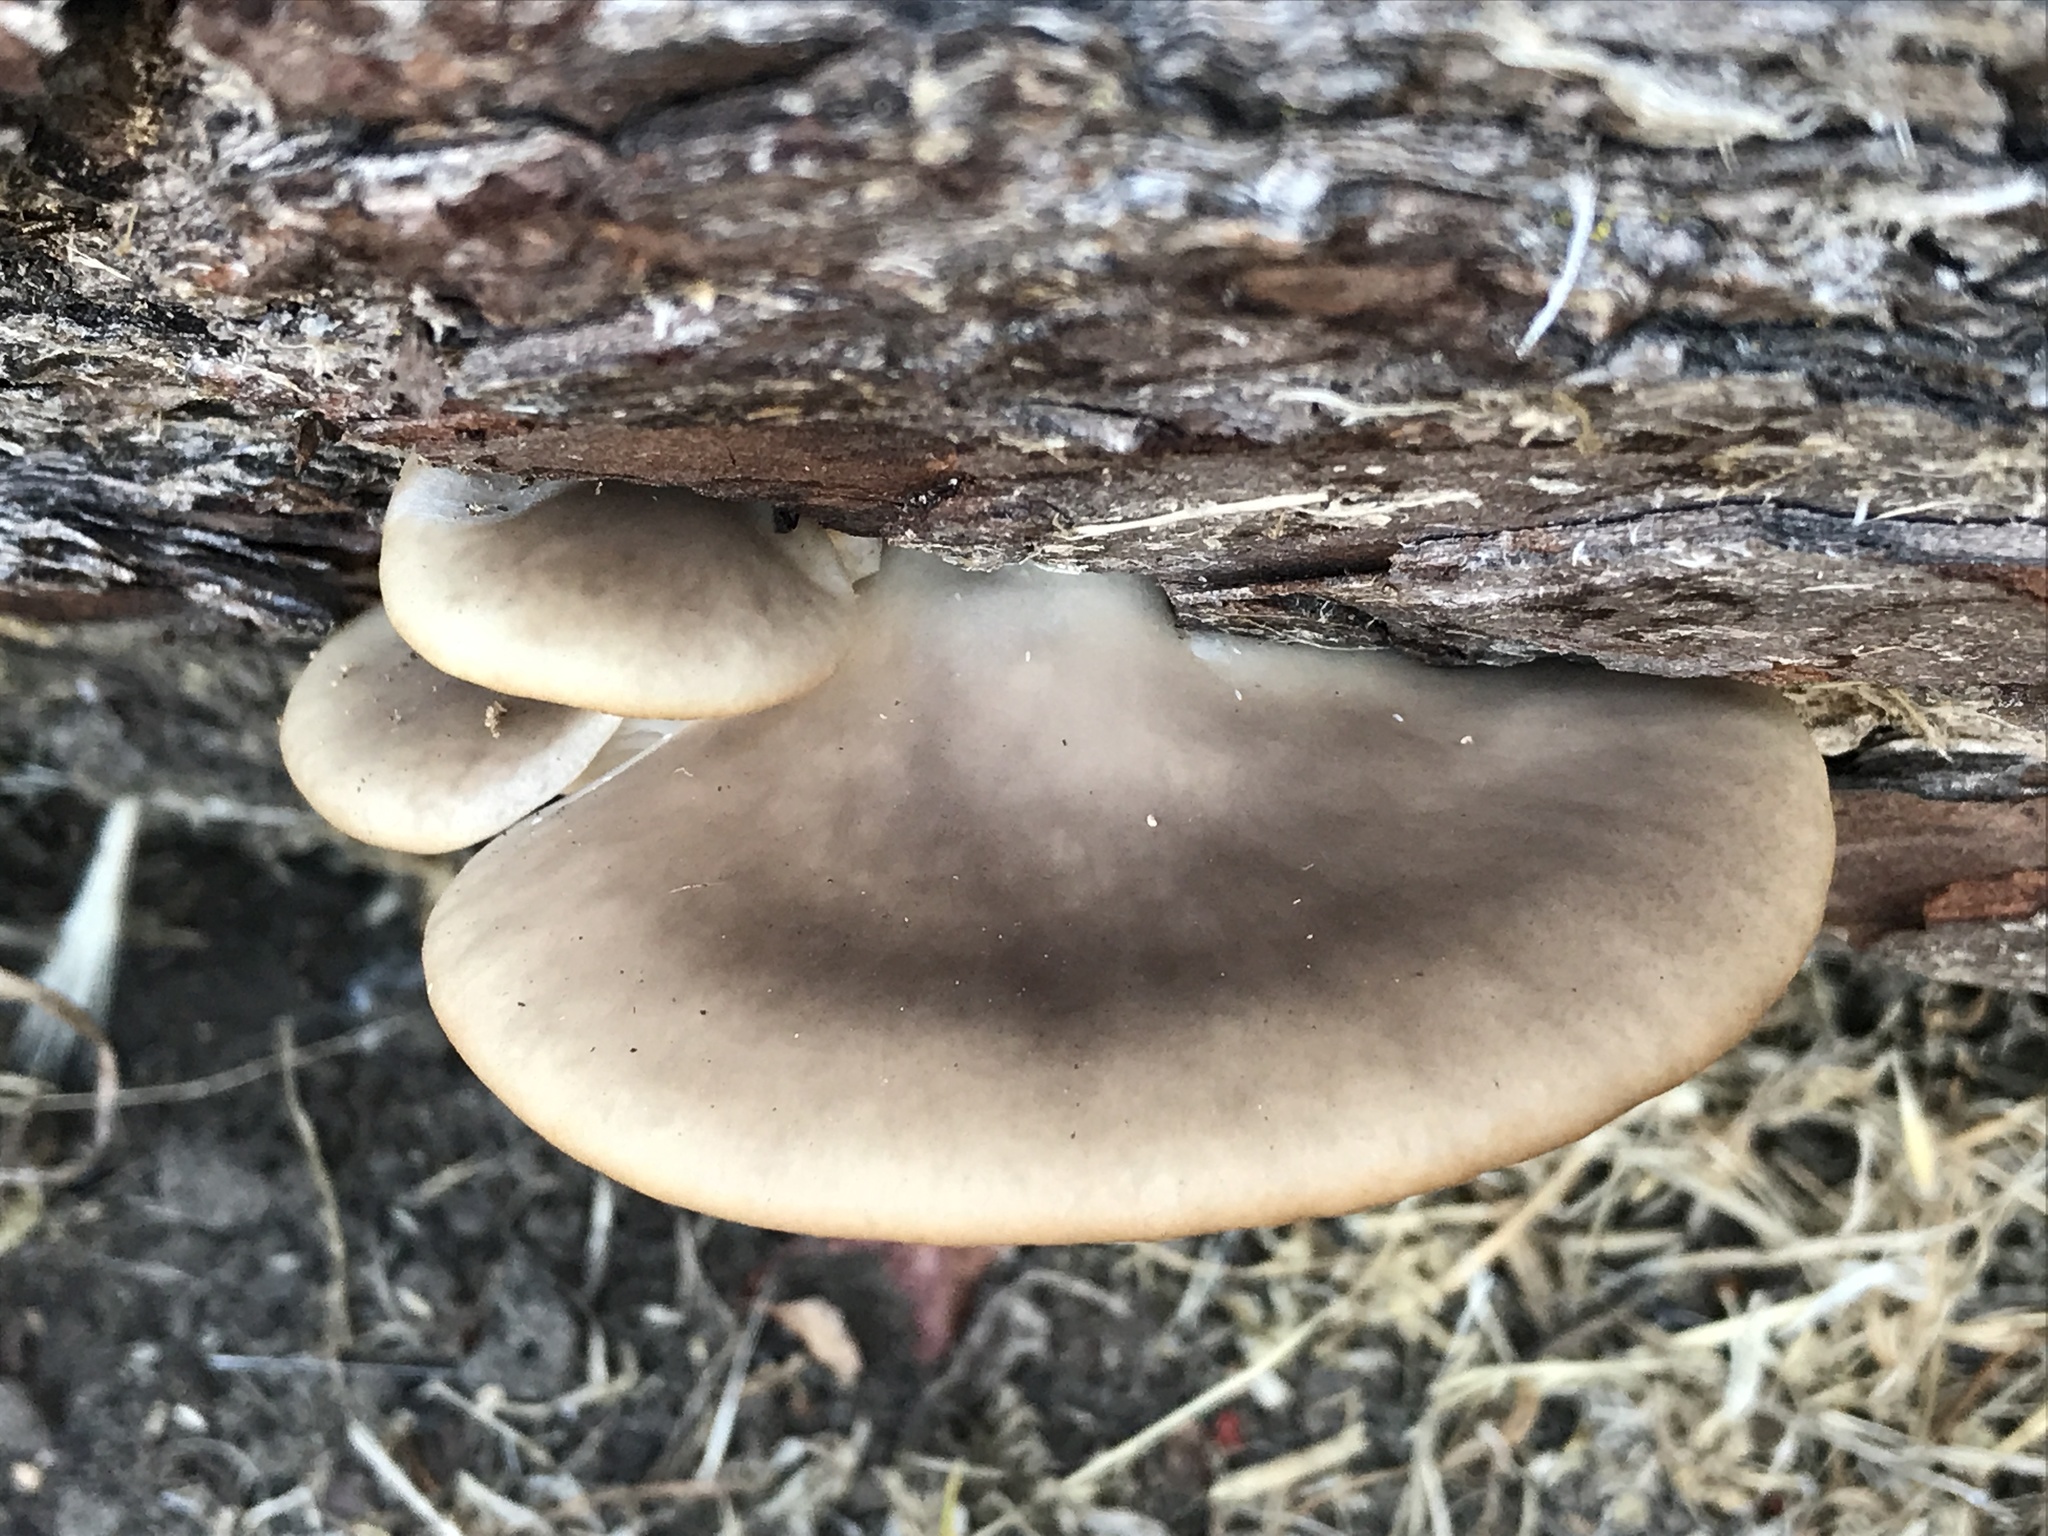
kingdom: Fungi
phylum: Basidiomycota
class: Agaricomycetes
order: Agaricales
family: Pleurotaceae
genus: Pleurotus
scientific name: Pleurotus pulmonarius
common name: Pale oyster
